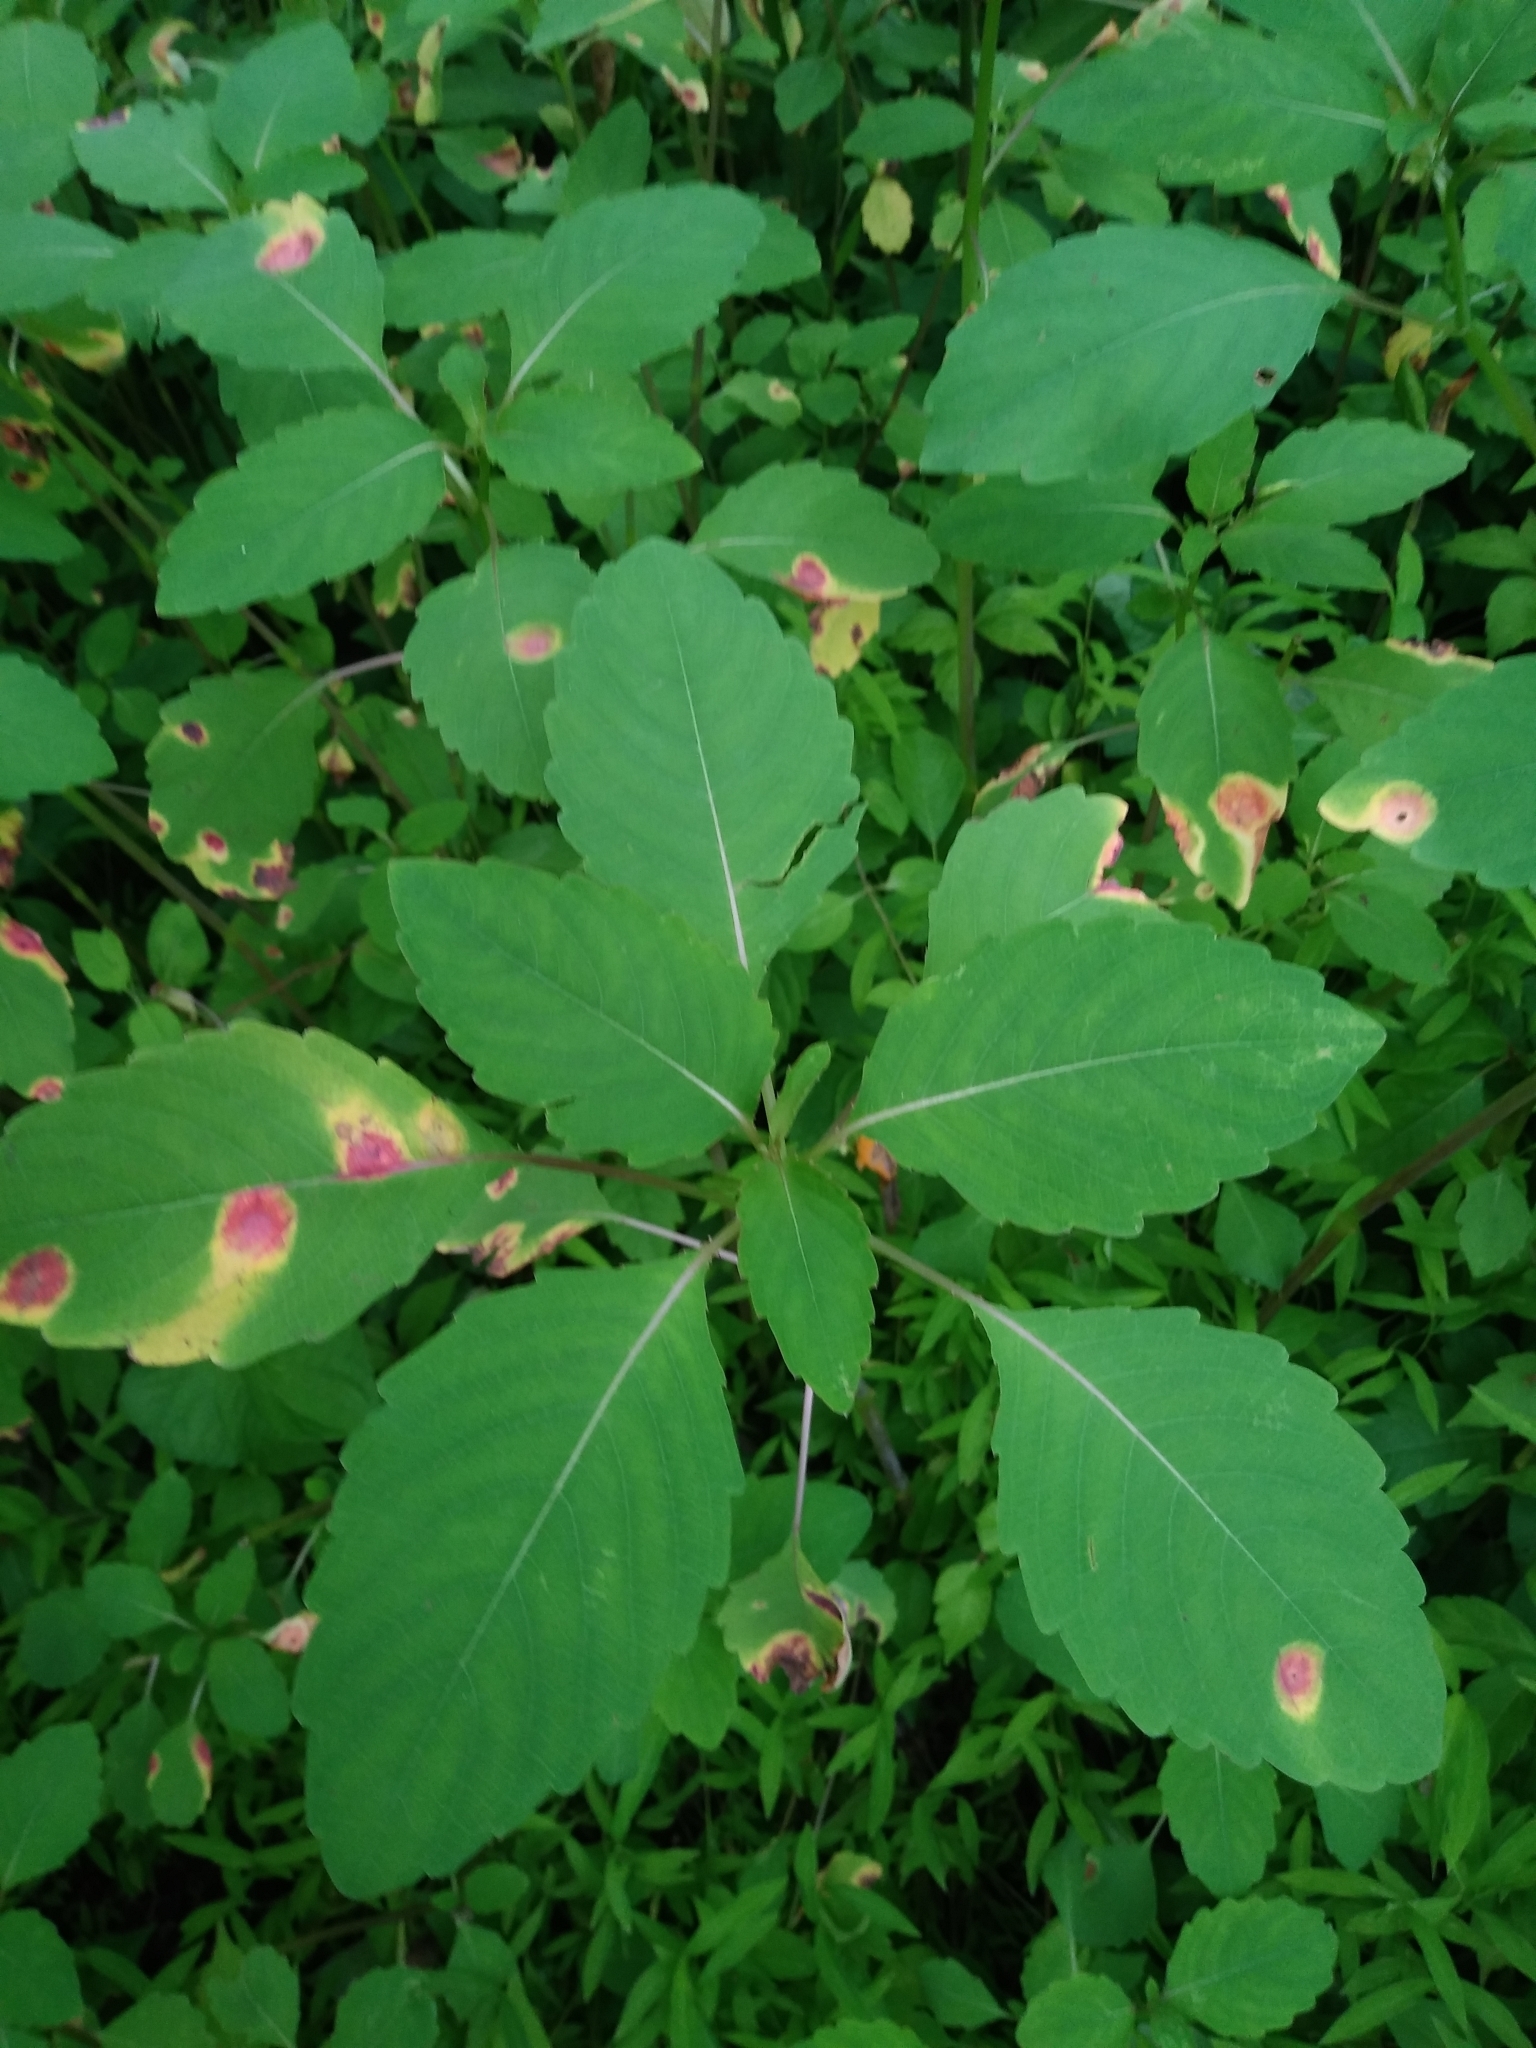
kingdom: Plantae
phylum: Tracheophyta
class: Magnoliopsida
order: Ericales
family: Balsaminaceae
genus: Impatiens
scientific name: Impatiens capensis
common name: Orange balsam
